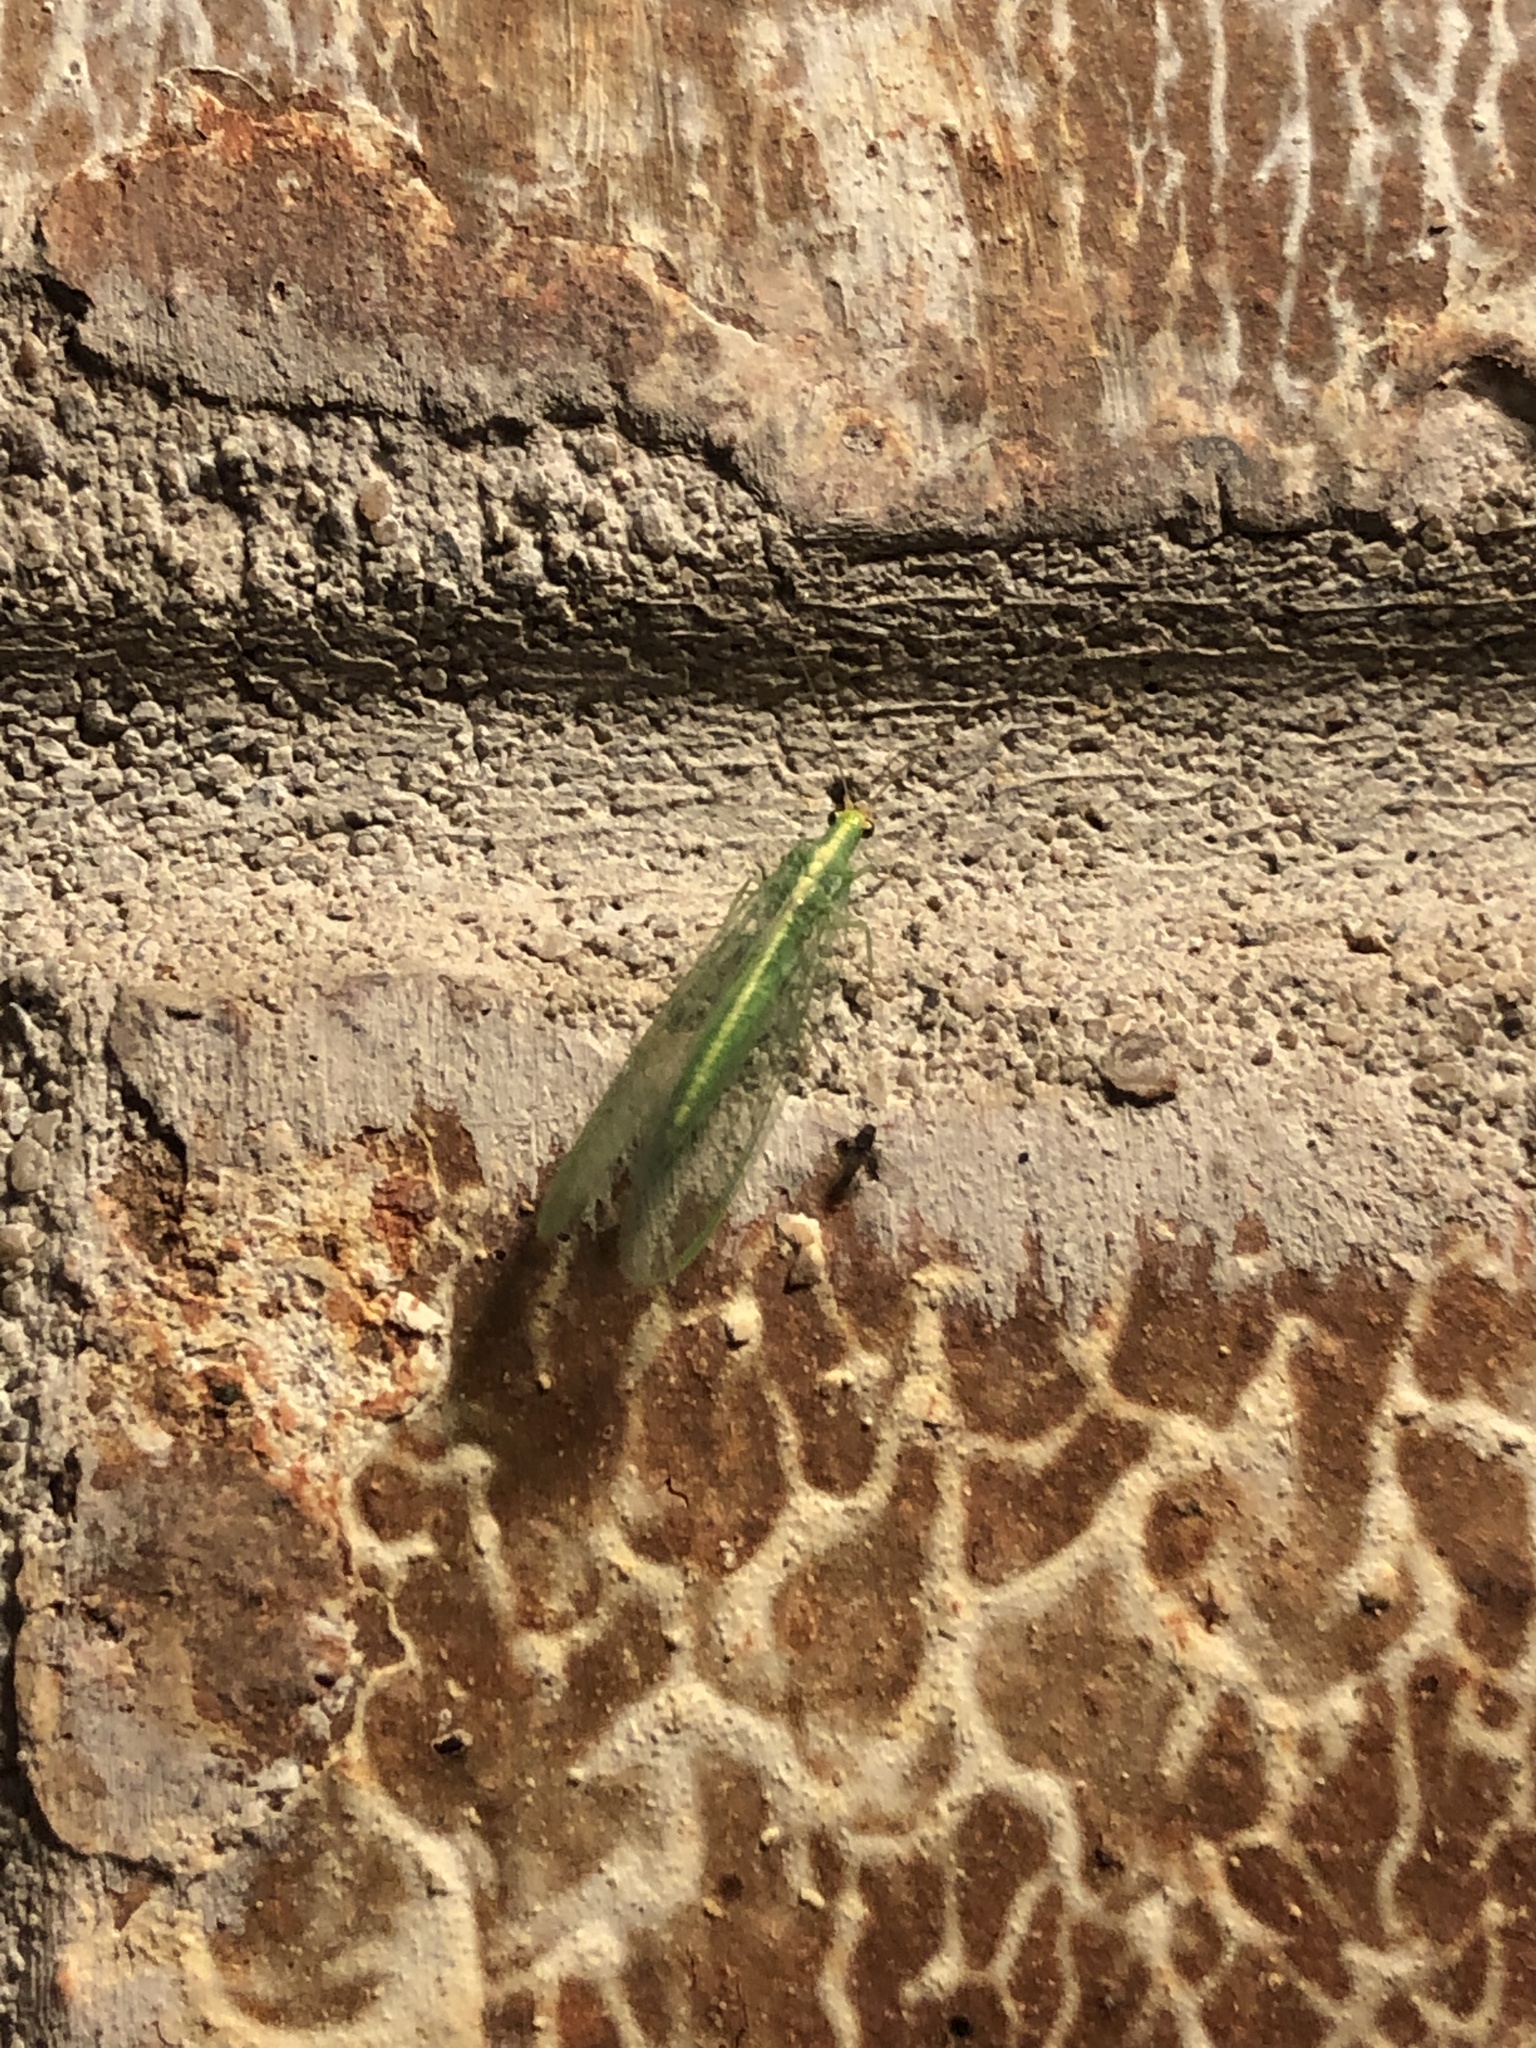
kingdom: Animalia
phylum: Arthropoda
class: Insecta
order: Neuroptera
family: Chrysopidae
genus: Chrysoperla
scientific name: Chrysoperla
